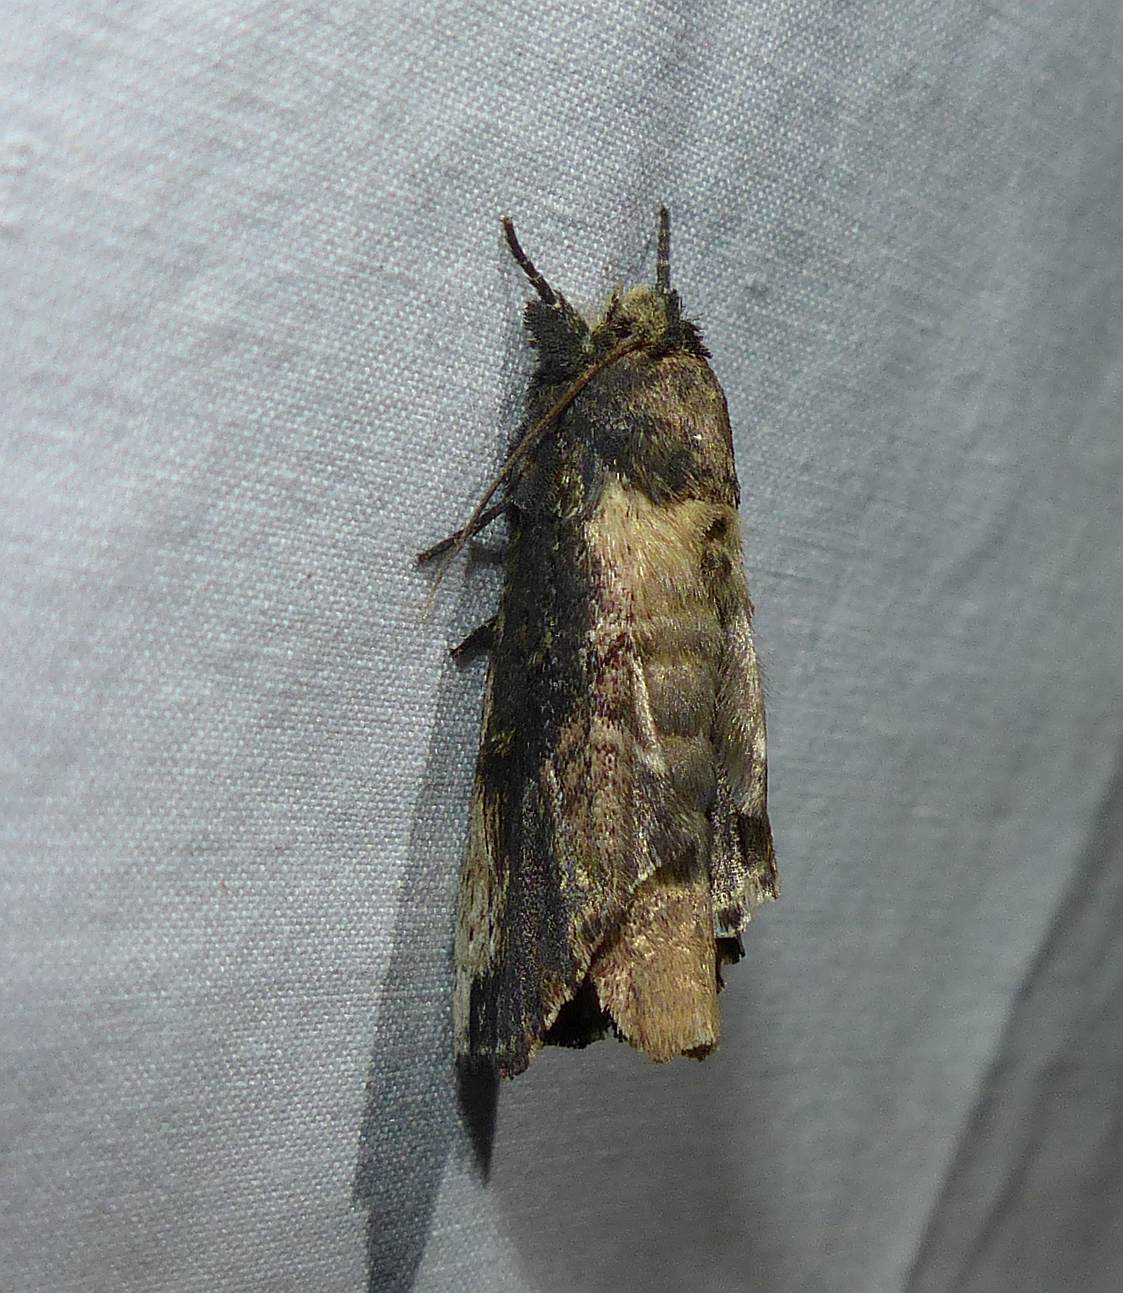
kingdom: Animalia
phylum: Arthropoda
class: Insecta
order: Lepidoptera
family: Notodontidae
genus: Schizura
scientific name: Schizura ipomaeae
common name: Morning-glory prominent
